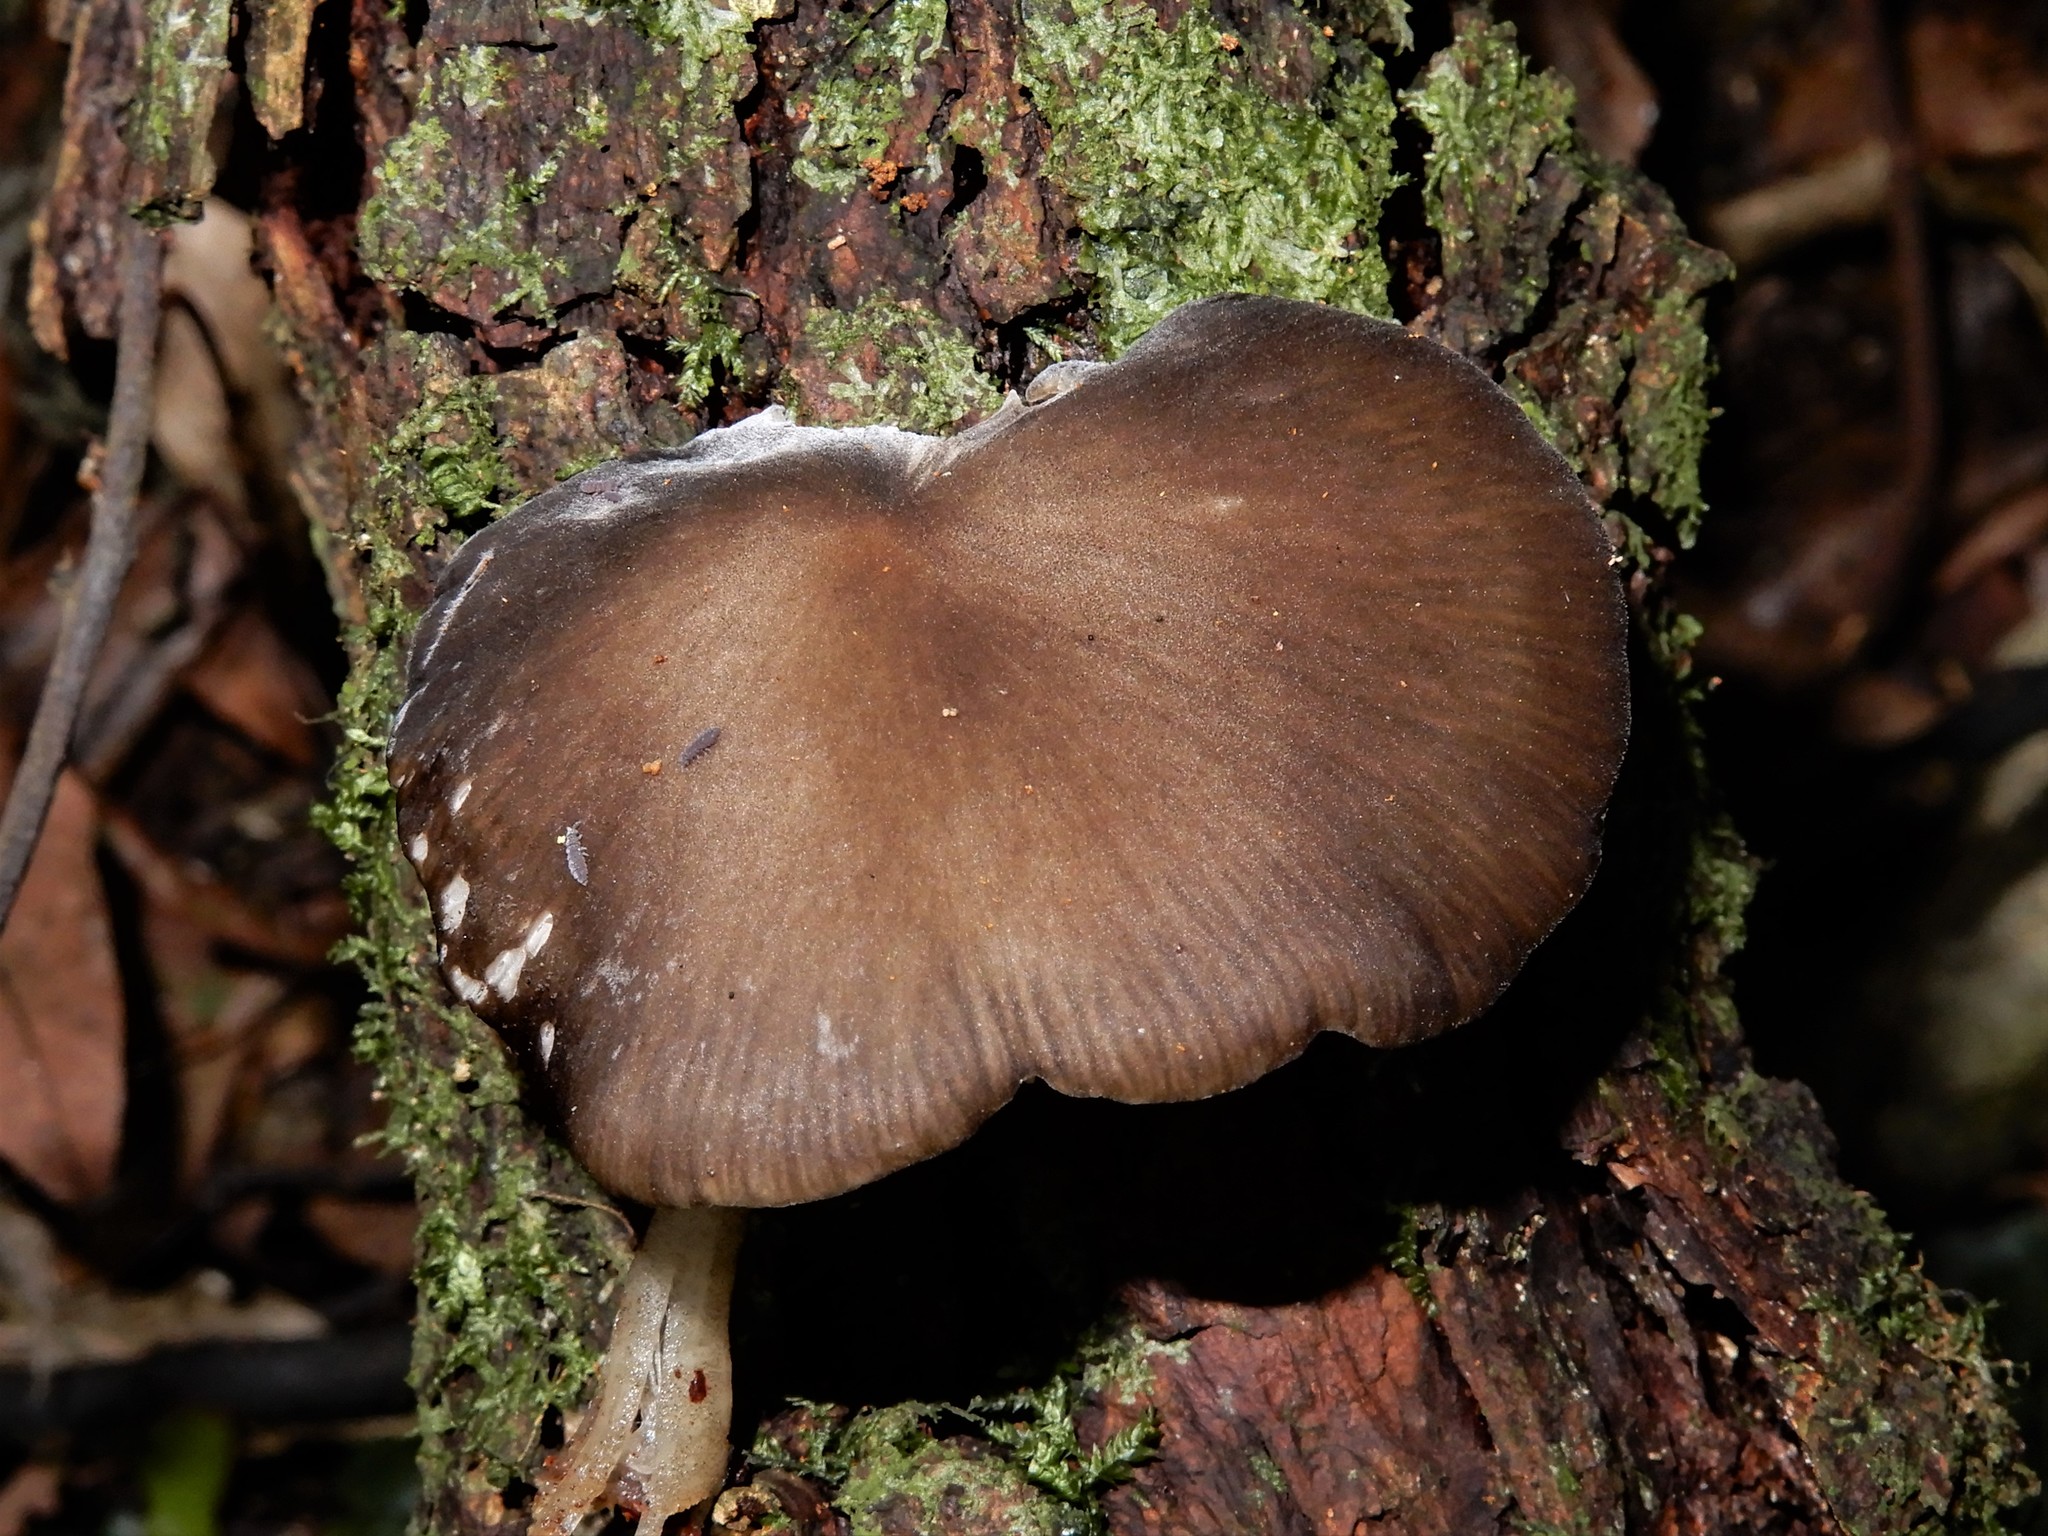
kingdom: Fungi
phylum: Basidiomycota
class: Agaricomycetes
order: Agaricales
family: Porotheleaceae
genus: Pseudohydropus
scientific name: Pseudohydropus commenticius
